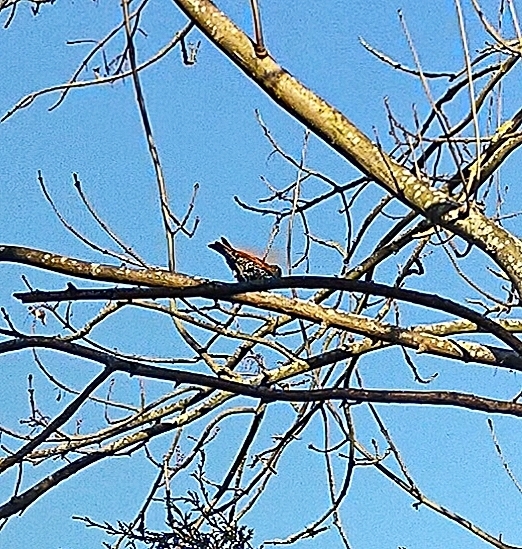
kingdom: Animalia
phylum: Chordata
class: Aves
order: Passeriformes
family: Sturnidae
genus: Sturnus
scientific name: Sturnus vulgaris
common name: Common starling
